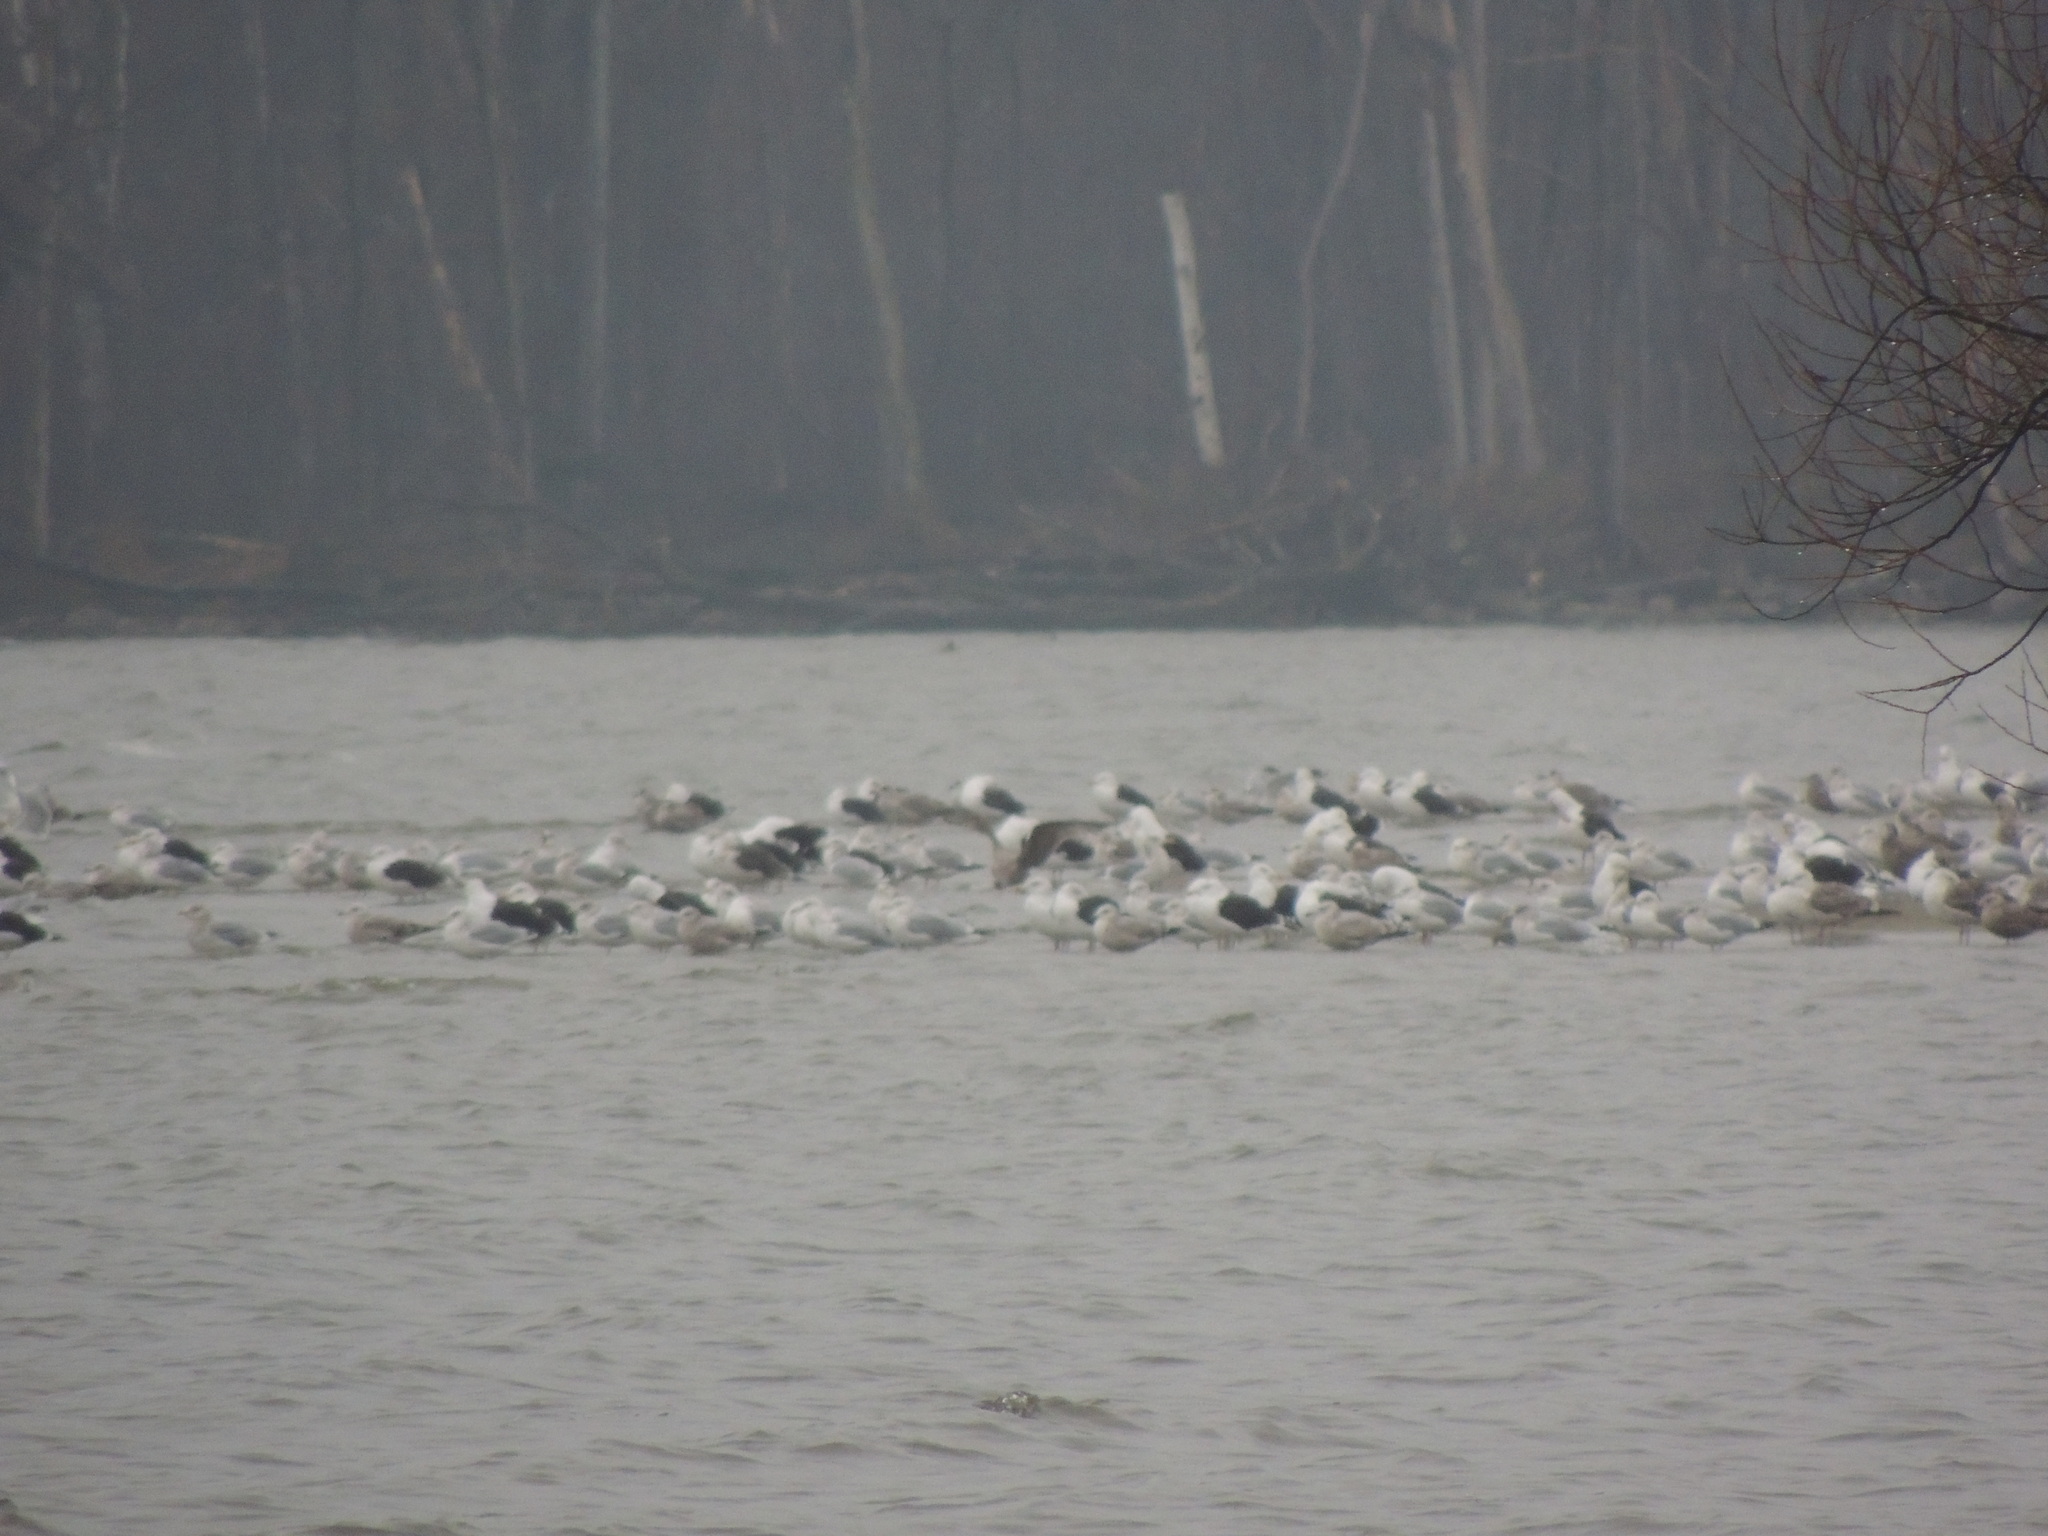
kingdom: Animalia
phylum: Chordata
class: Aves
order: Charadriiformes
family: Laridae
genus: Larus
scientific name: Larus marinus
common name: Great black-backed gull
